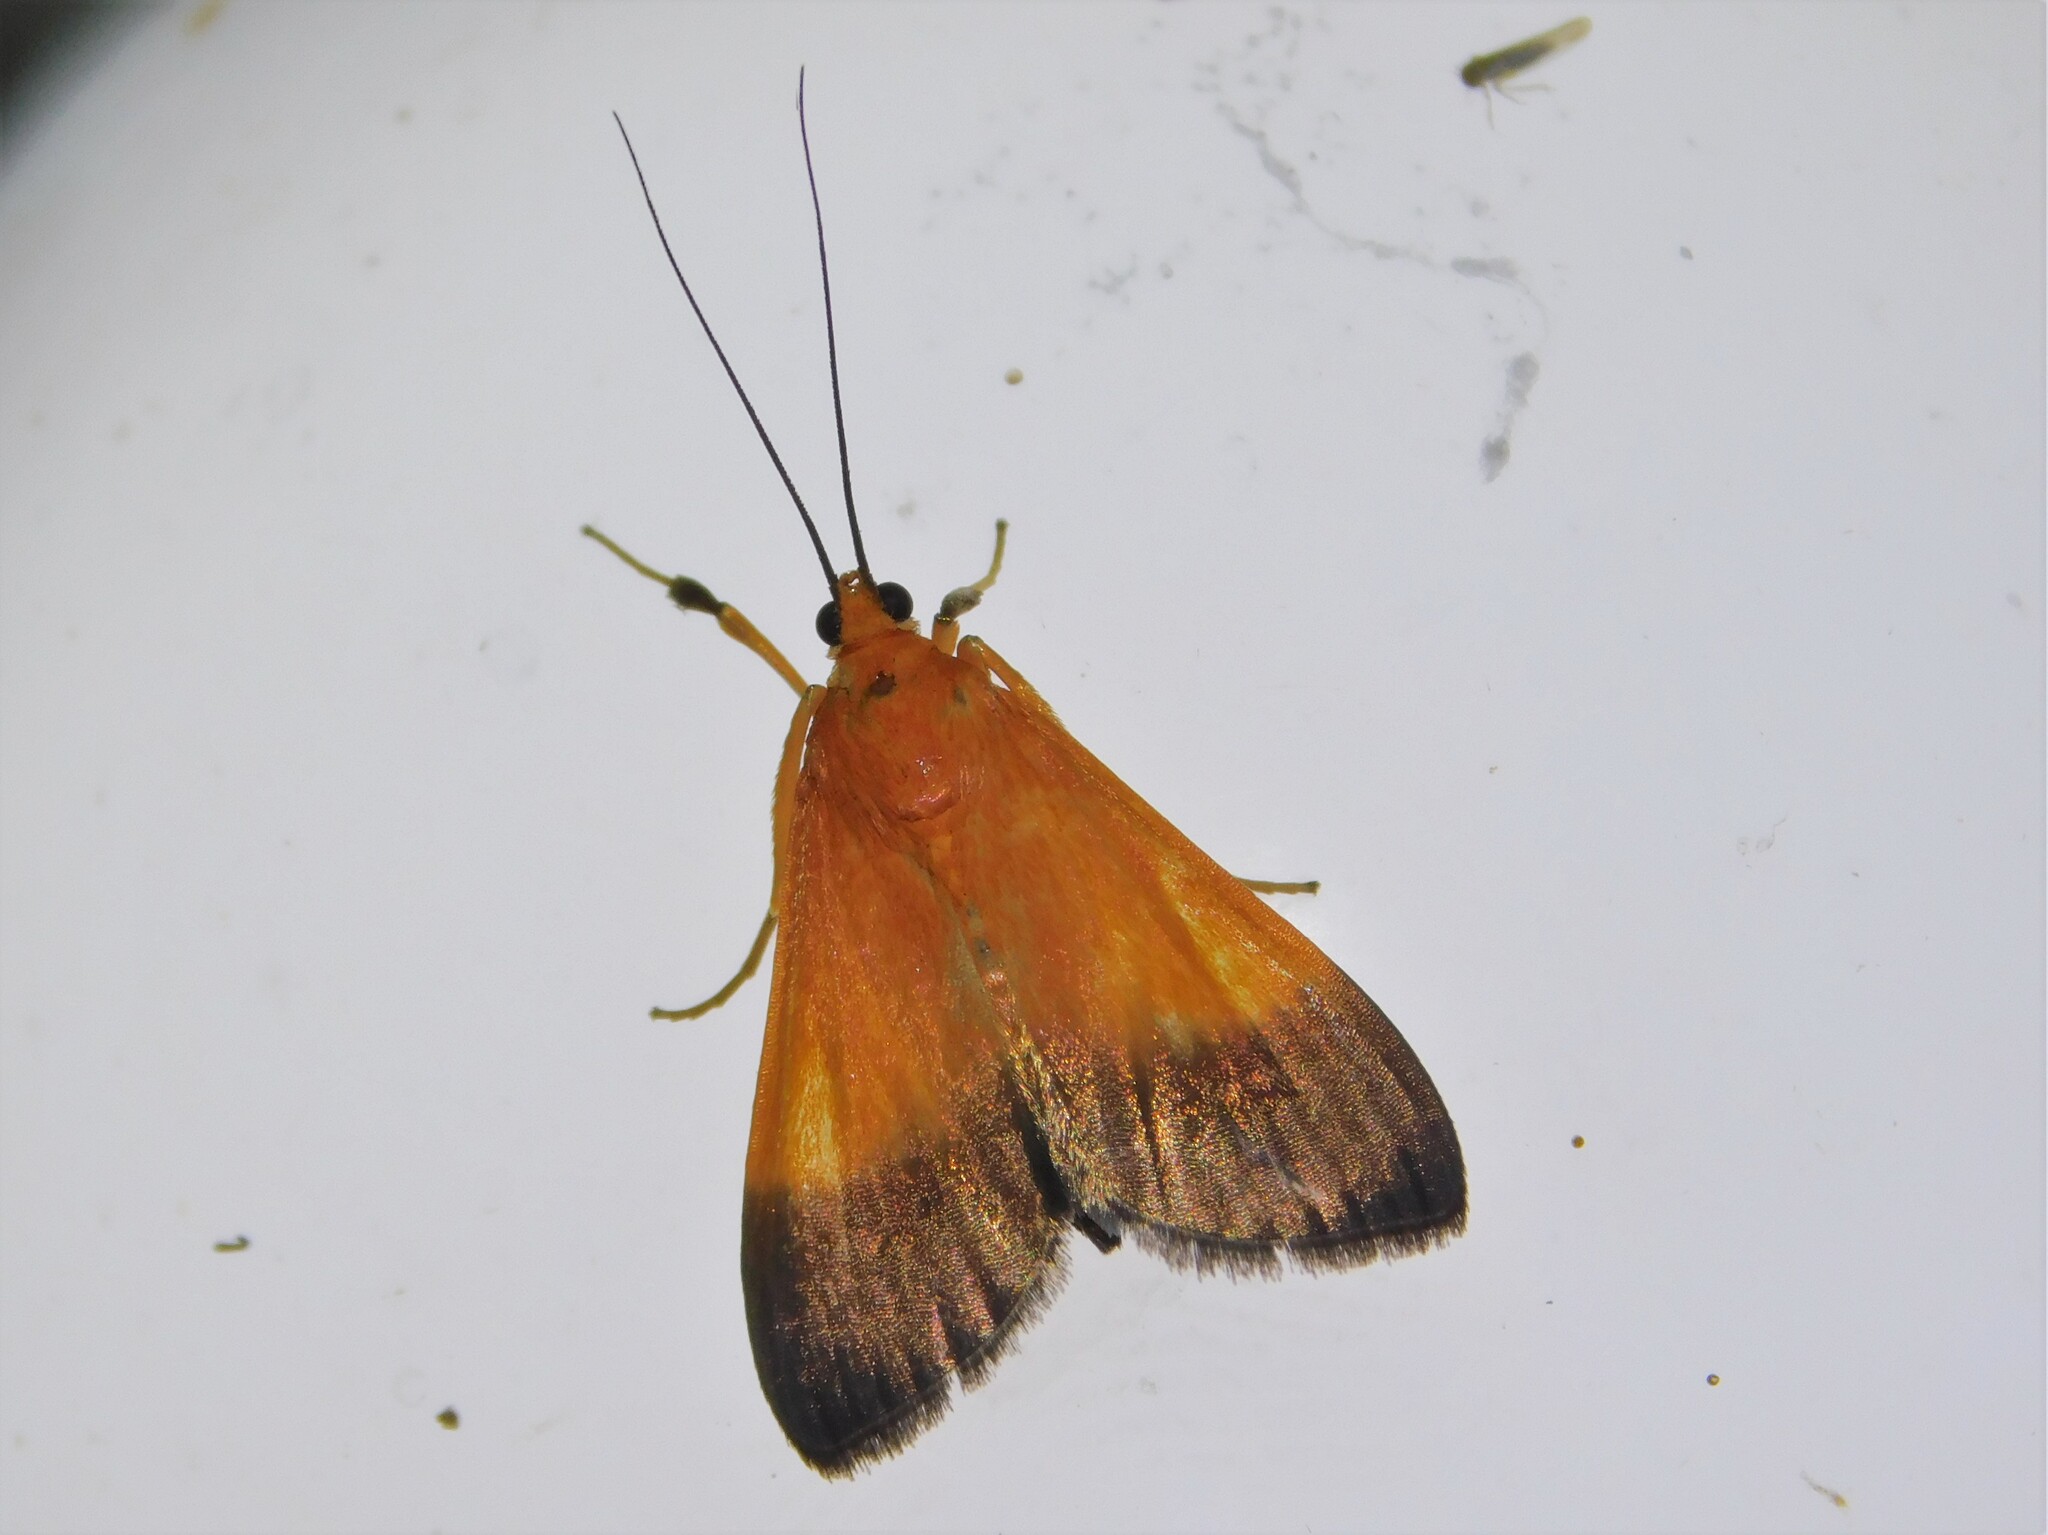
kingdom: Animalia
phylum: Arthropoda
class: Insecta
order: Lepidoptera
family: Crambidae
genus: Ulopeza
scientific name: Ulopeza conigeralis
